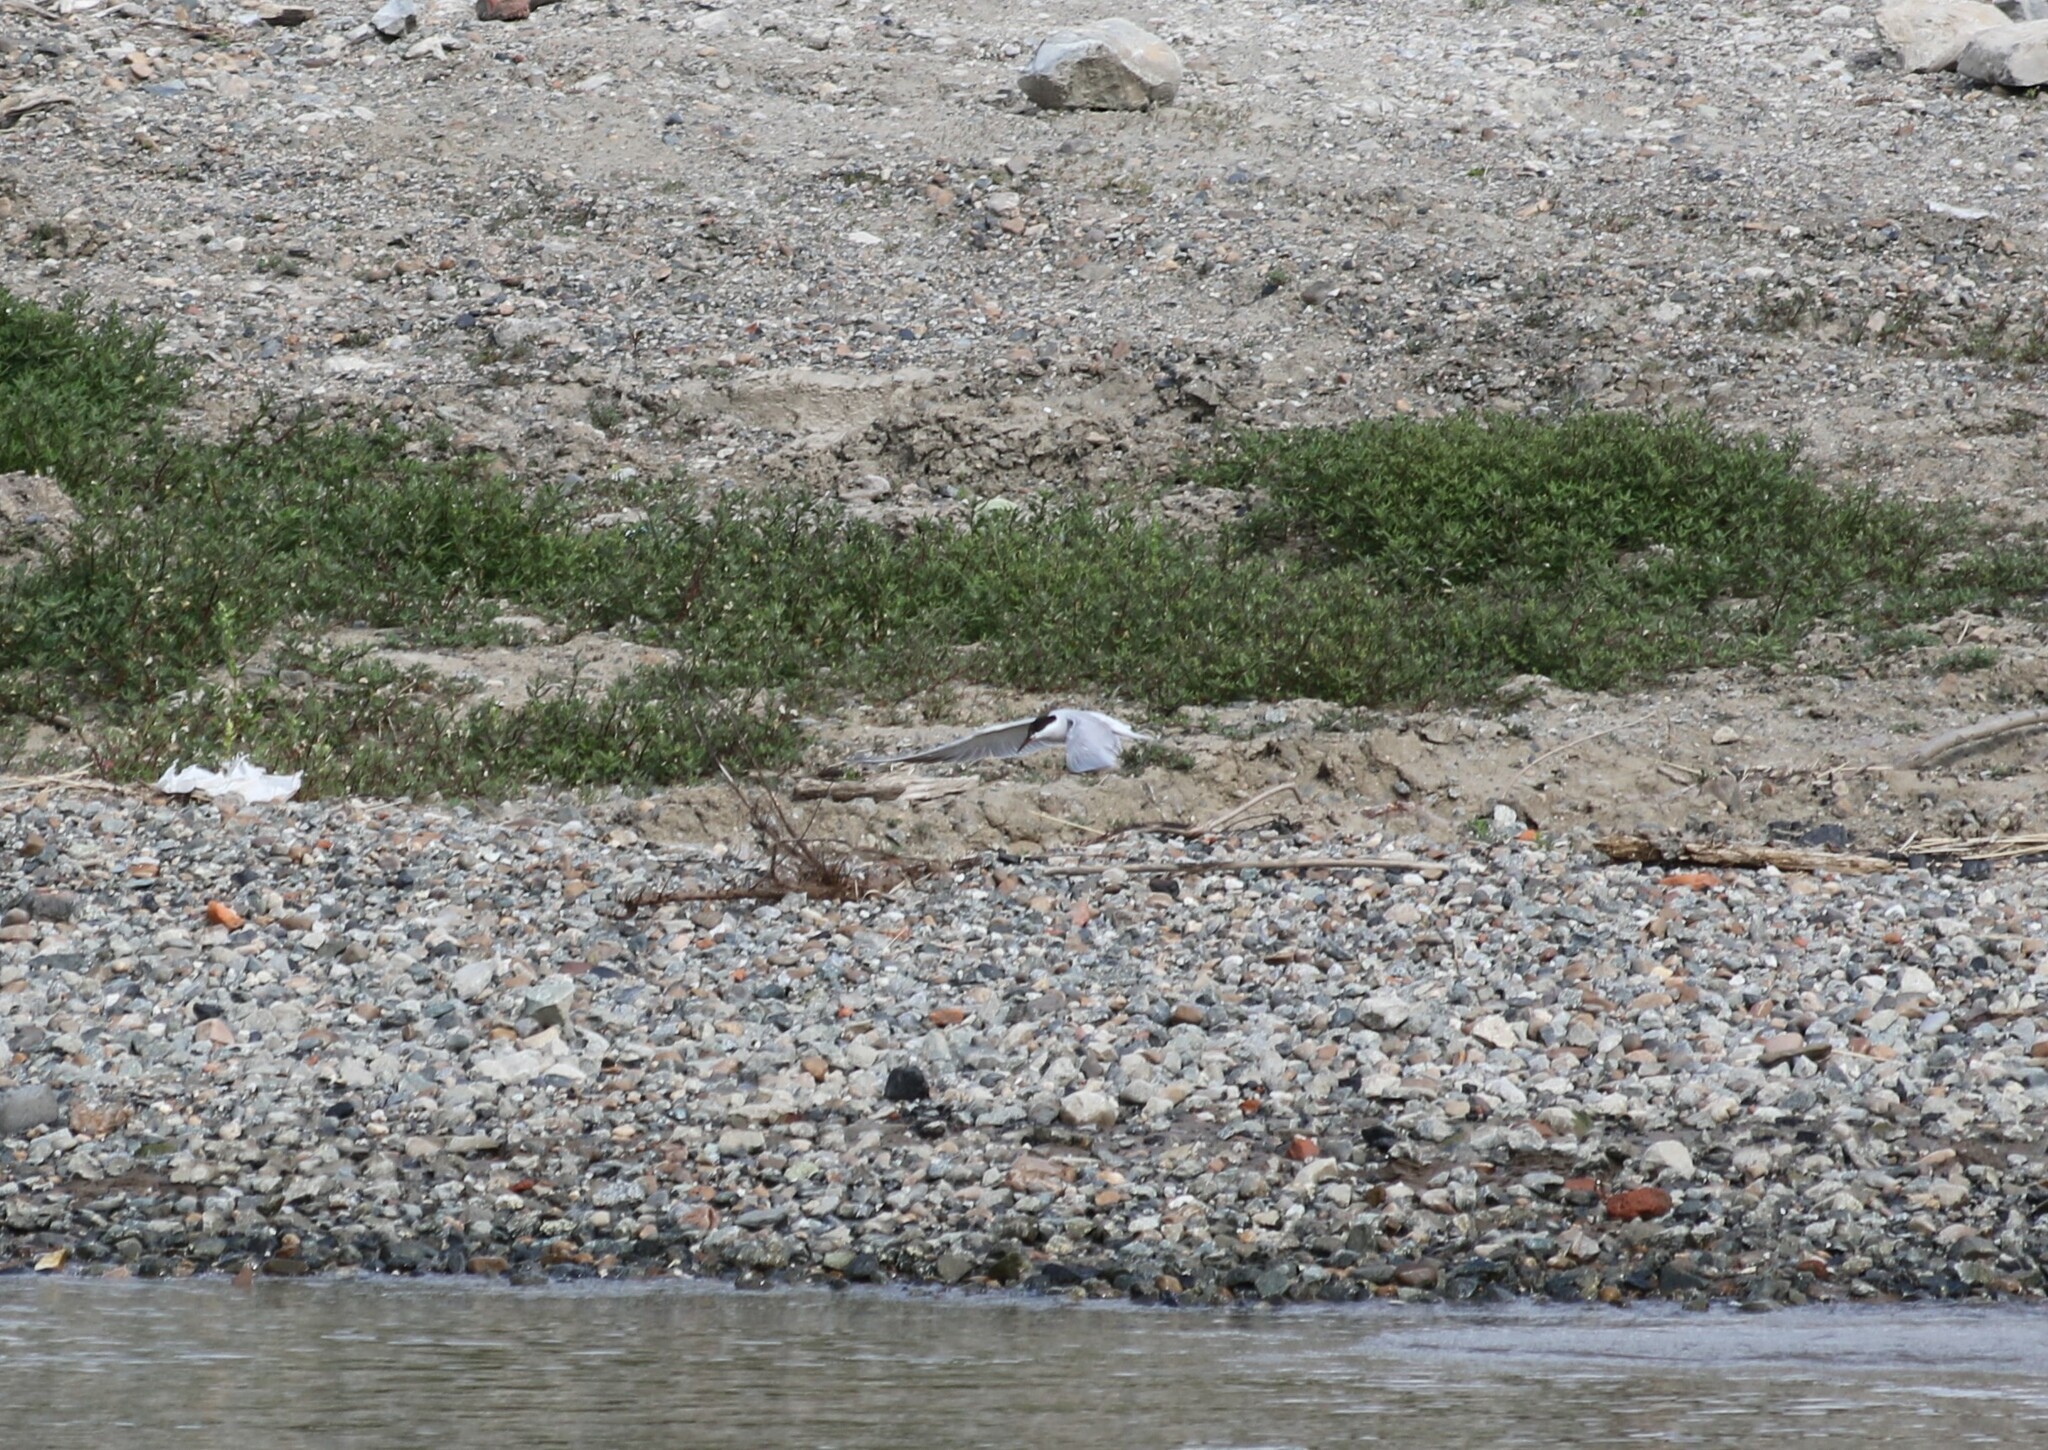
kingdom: Animalia
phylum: Chordata
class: Aves
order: Charadriiformes
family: Laridae
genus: Sterna
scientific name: Sterna hirundo
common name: Common tern
